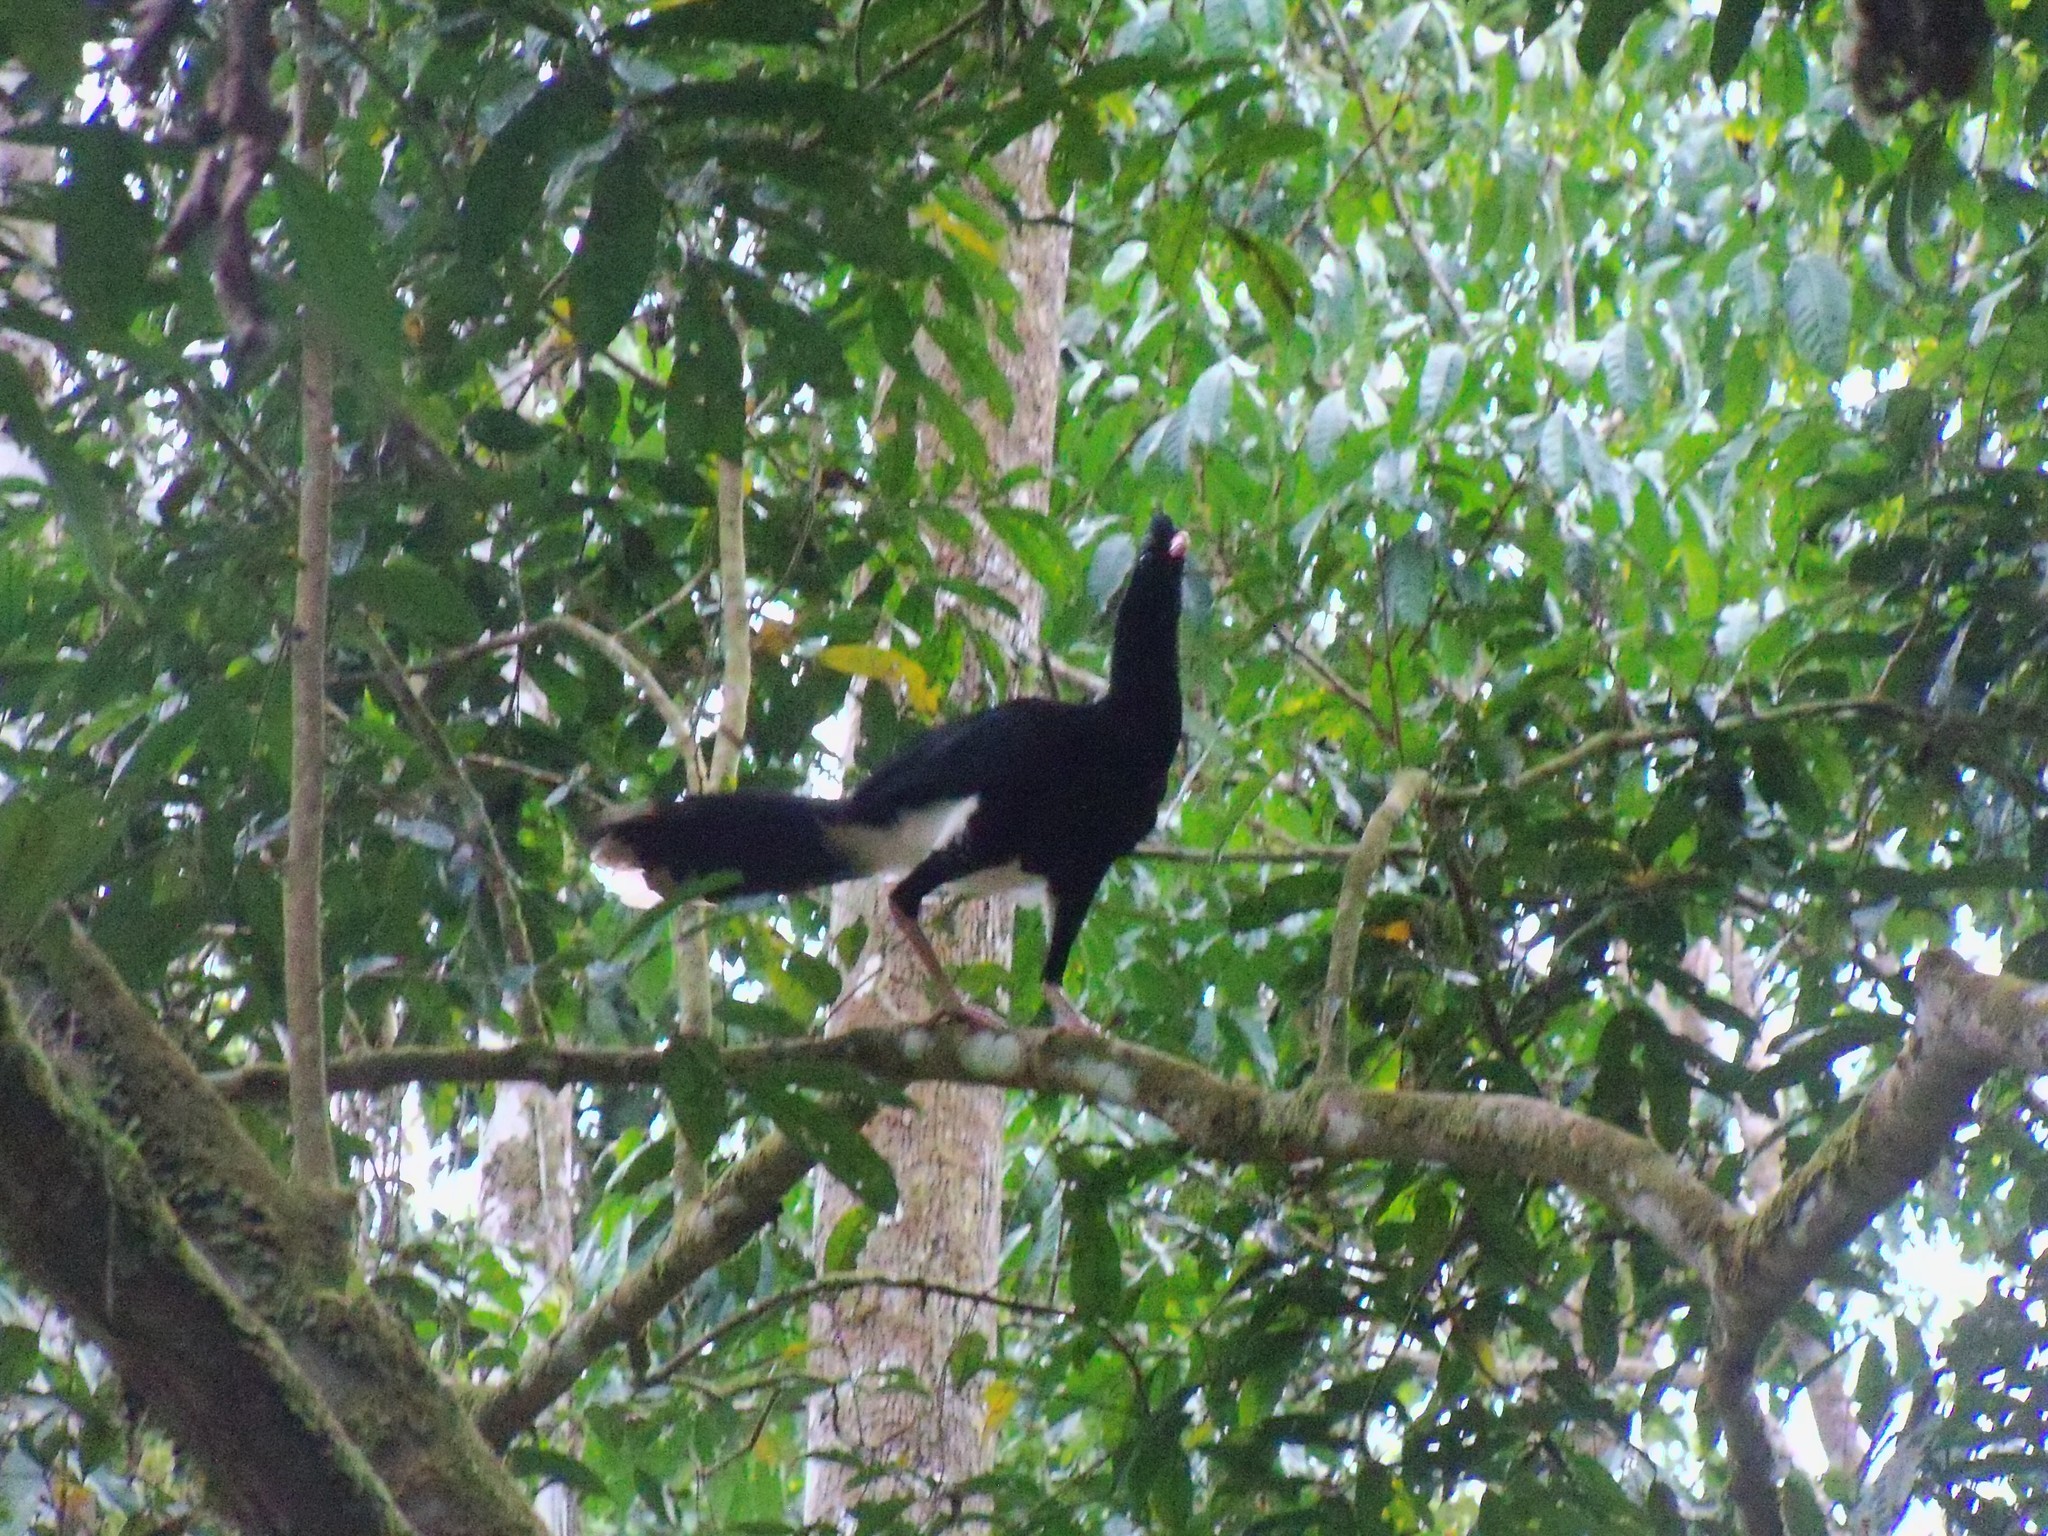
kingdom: Animalia
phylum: Chordata
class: Aves
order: Galliformes
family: Cracidae
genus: Mitu
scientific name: Mitu salvini
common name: Salvin's curassow
